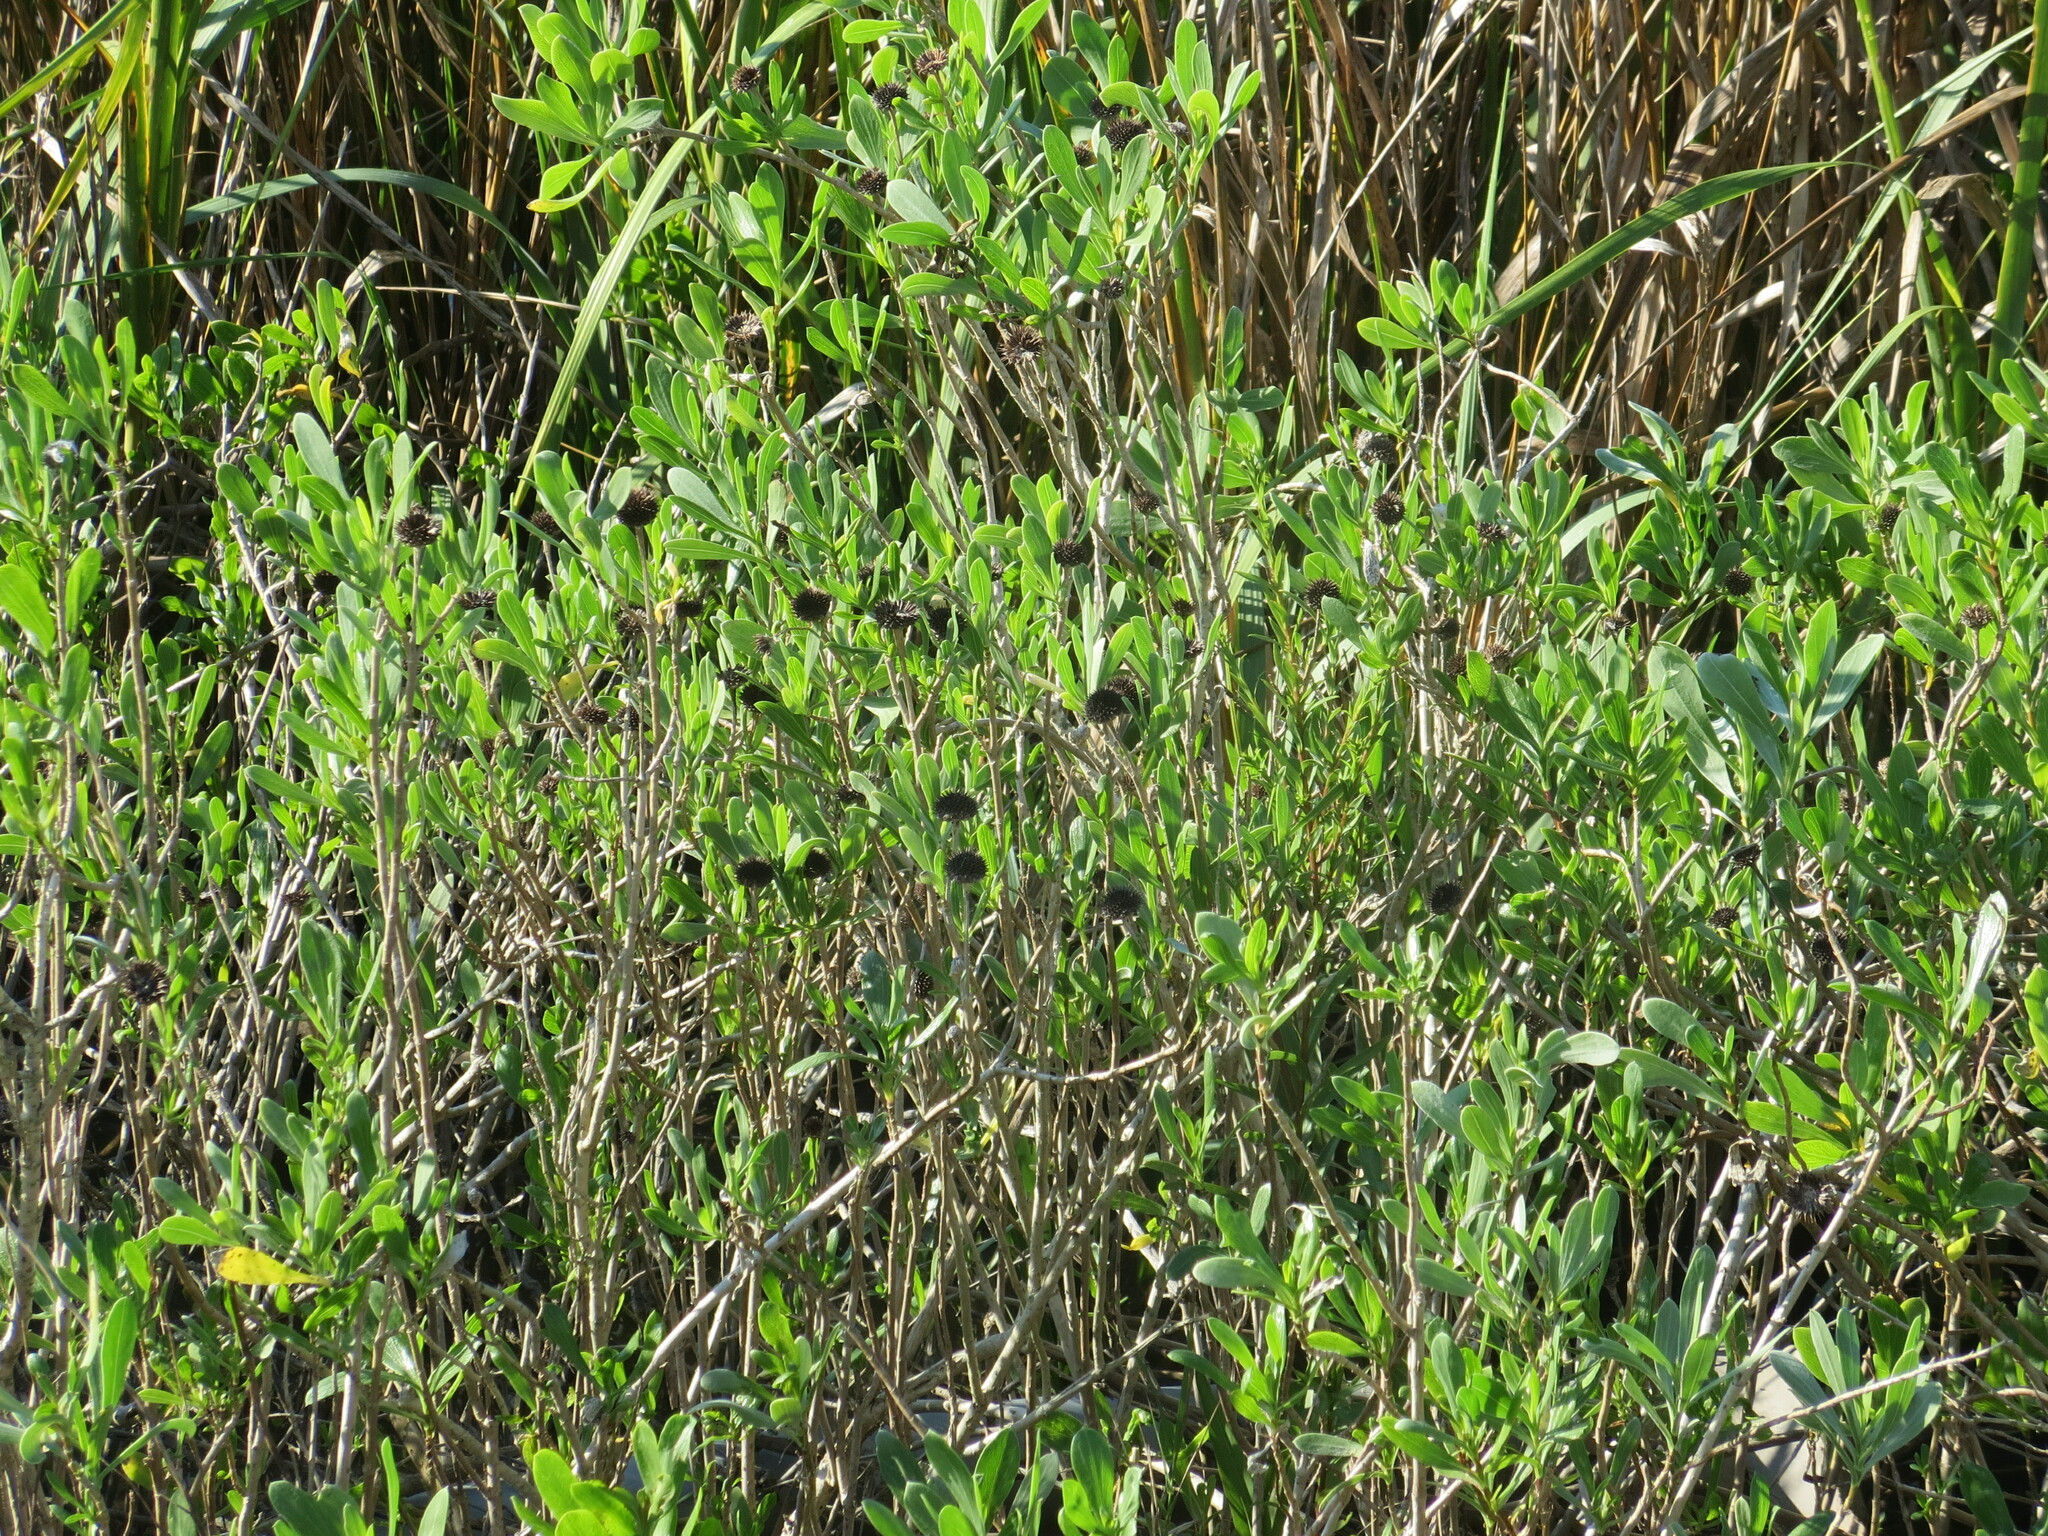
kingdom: Plantae
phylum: Tracheophyta
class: Magnoliopsida
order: Asterales
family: Asteraceae
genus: Borrichia
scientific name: Borrichia frutescens
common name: Sea oxeye
